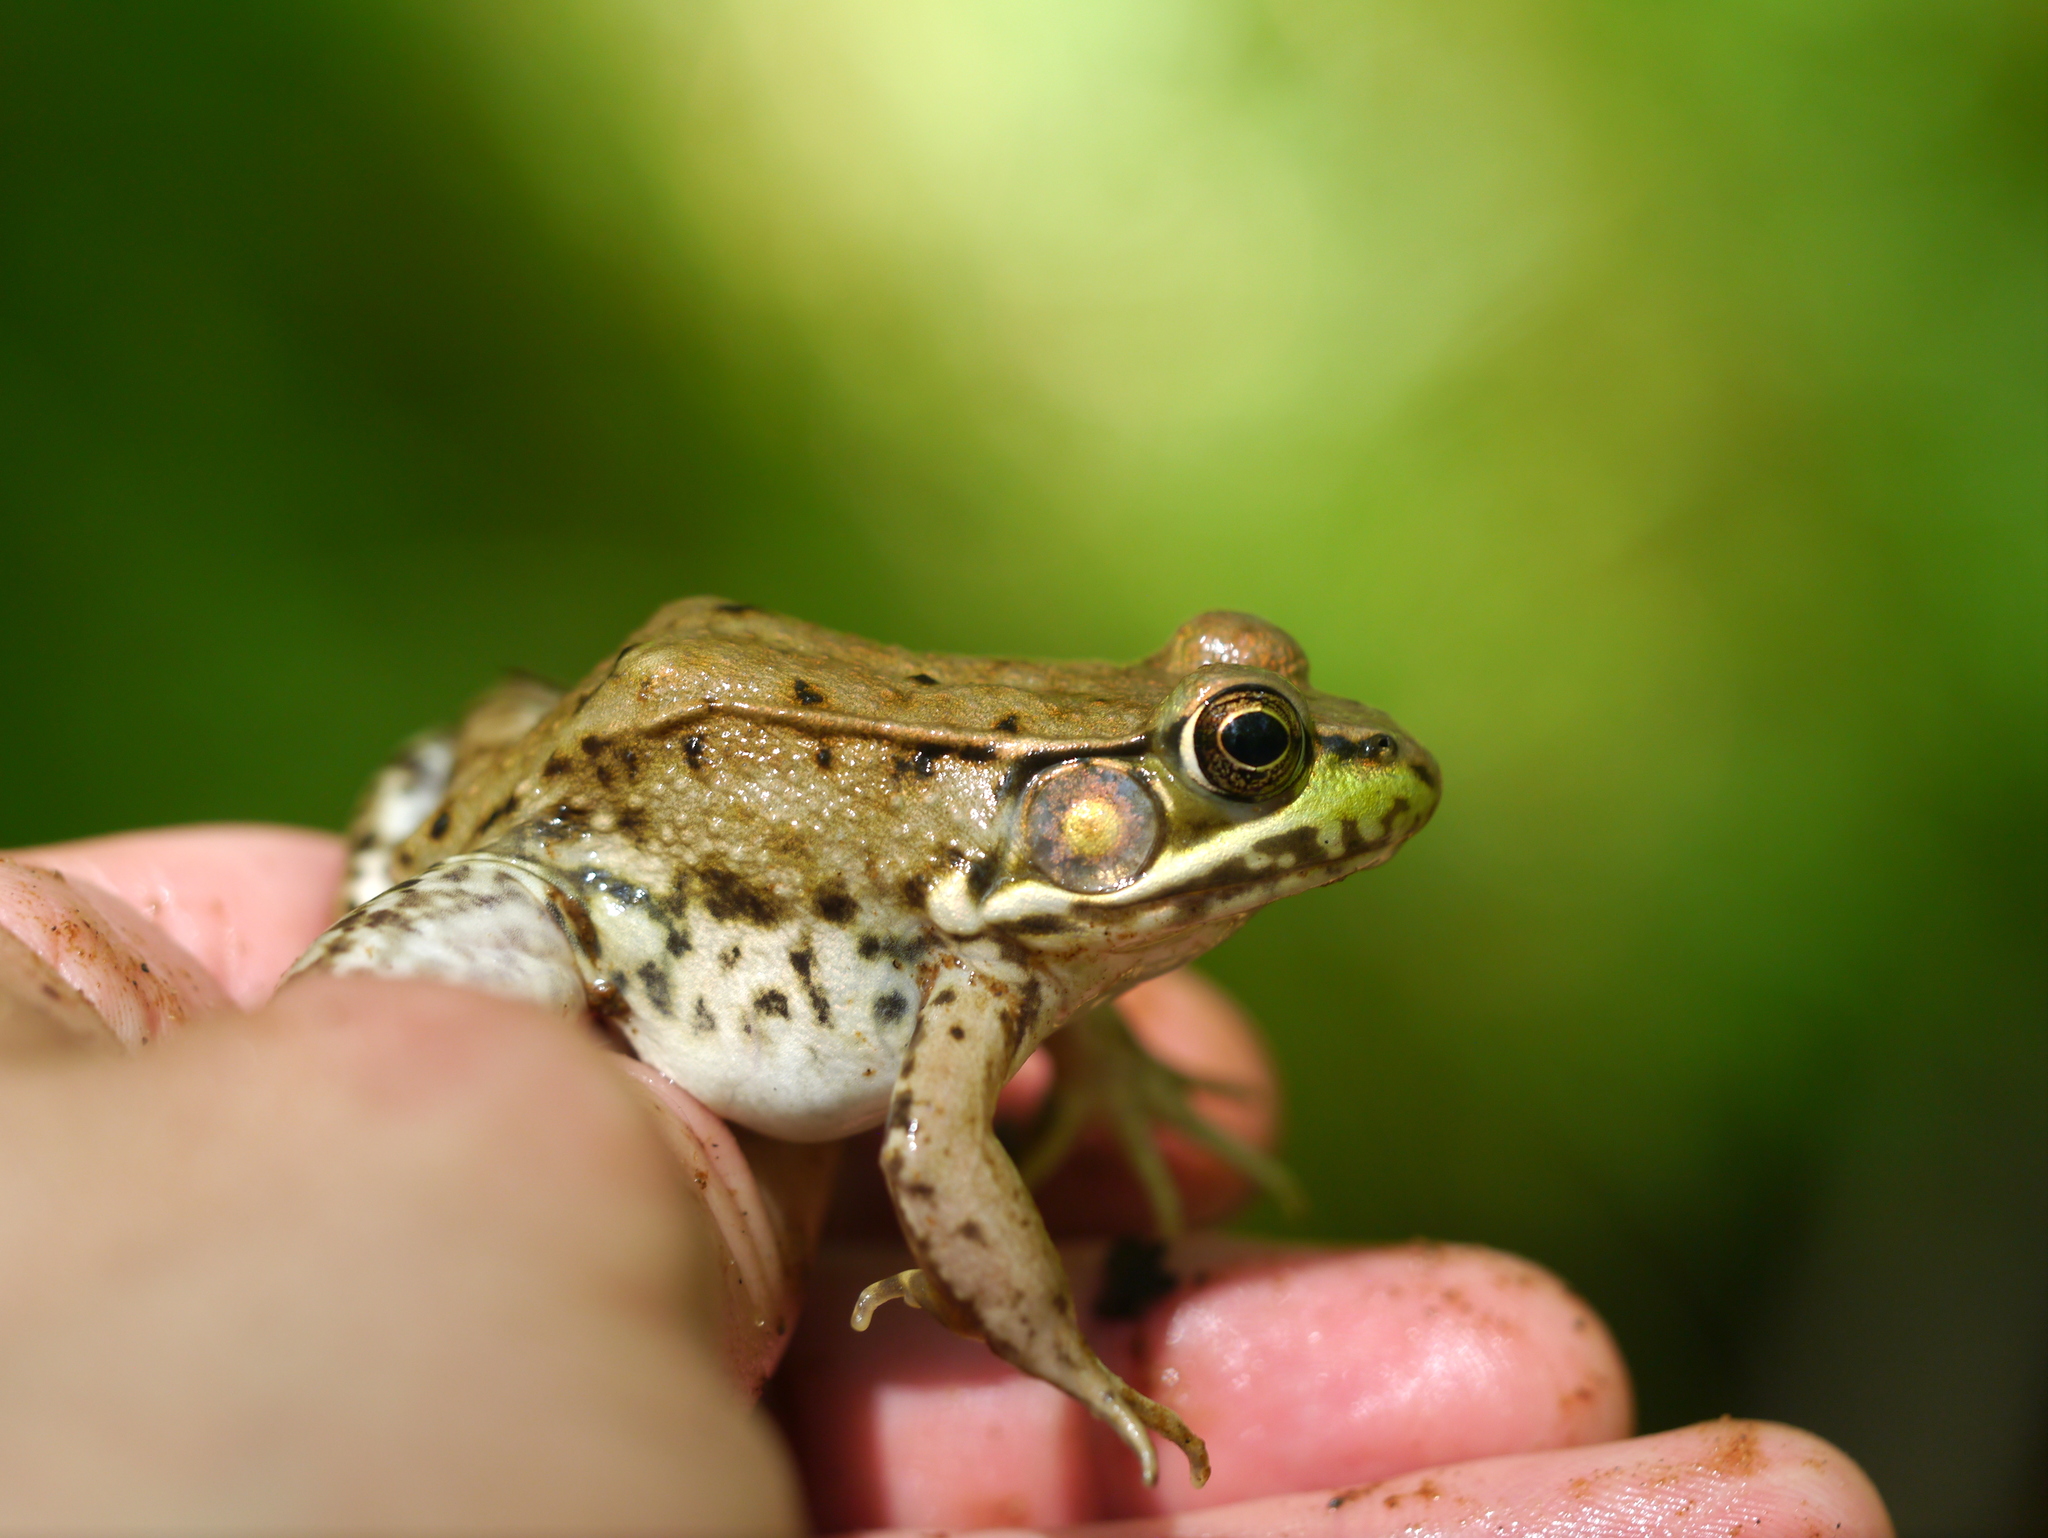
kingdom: Animalia
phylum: Chordata
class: Amphibia
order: Anura
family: Ranidae
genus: Lithobates
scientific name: Lithobates clamitans
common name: Green frog
